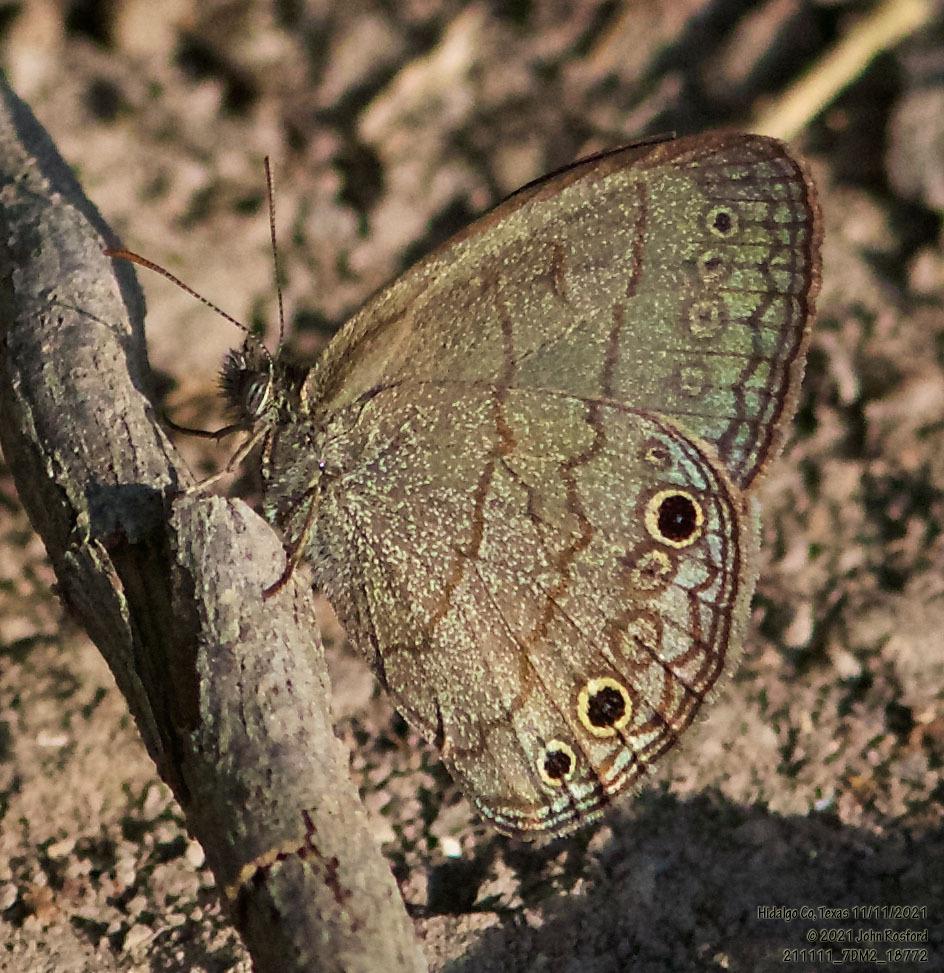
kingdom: Animalia
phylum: Arthropoda
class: Insecta
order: Lepidoptera
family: Nymphalidae
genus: Hermeuptychia
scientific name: Hermeuptychia hermybius
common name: South texas satyr
